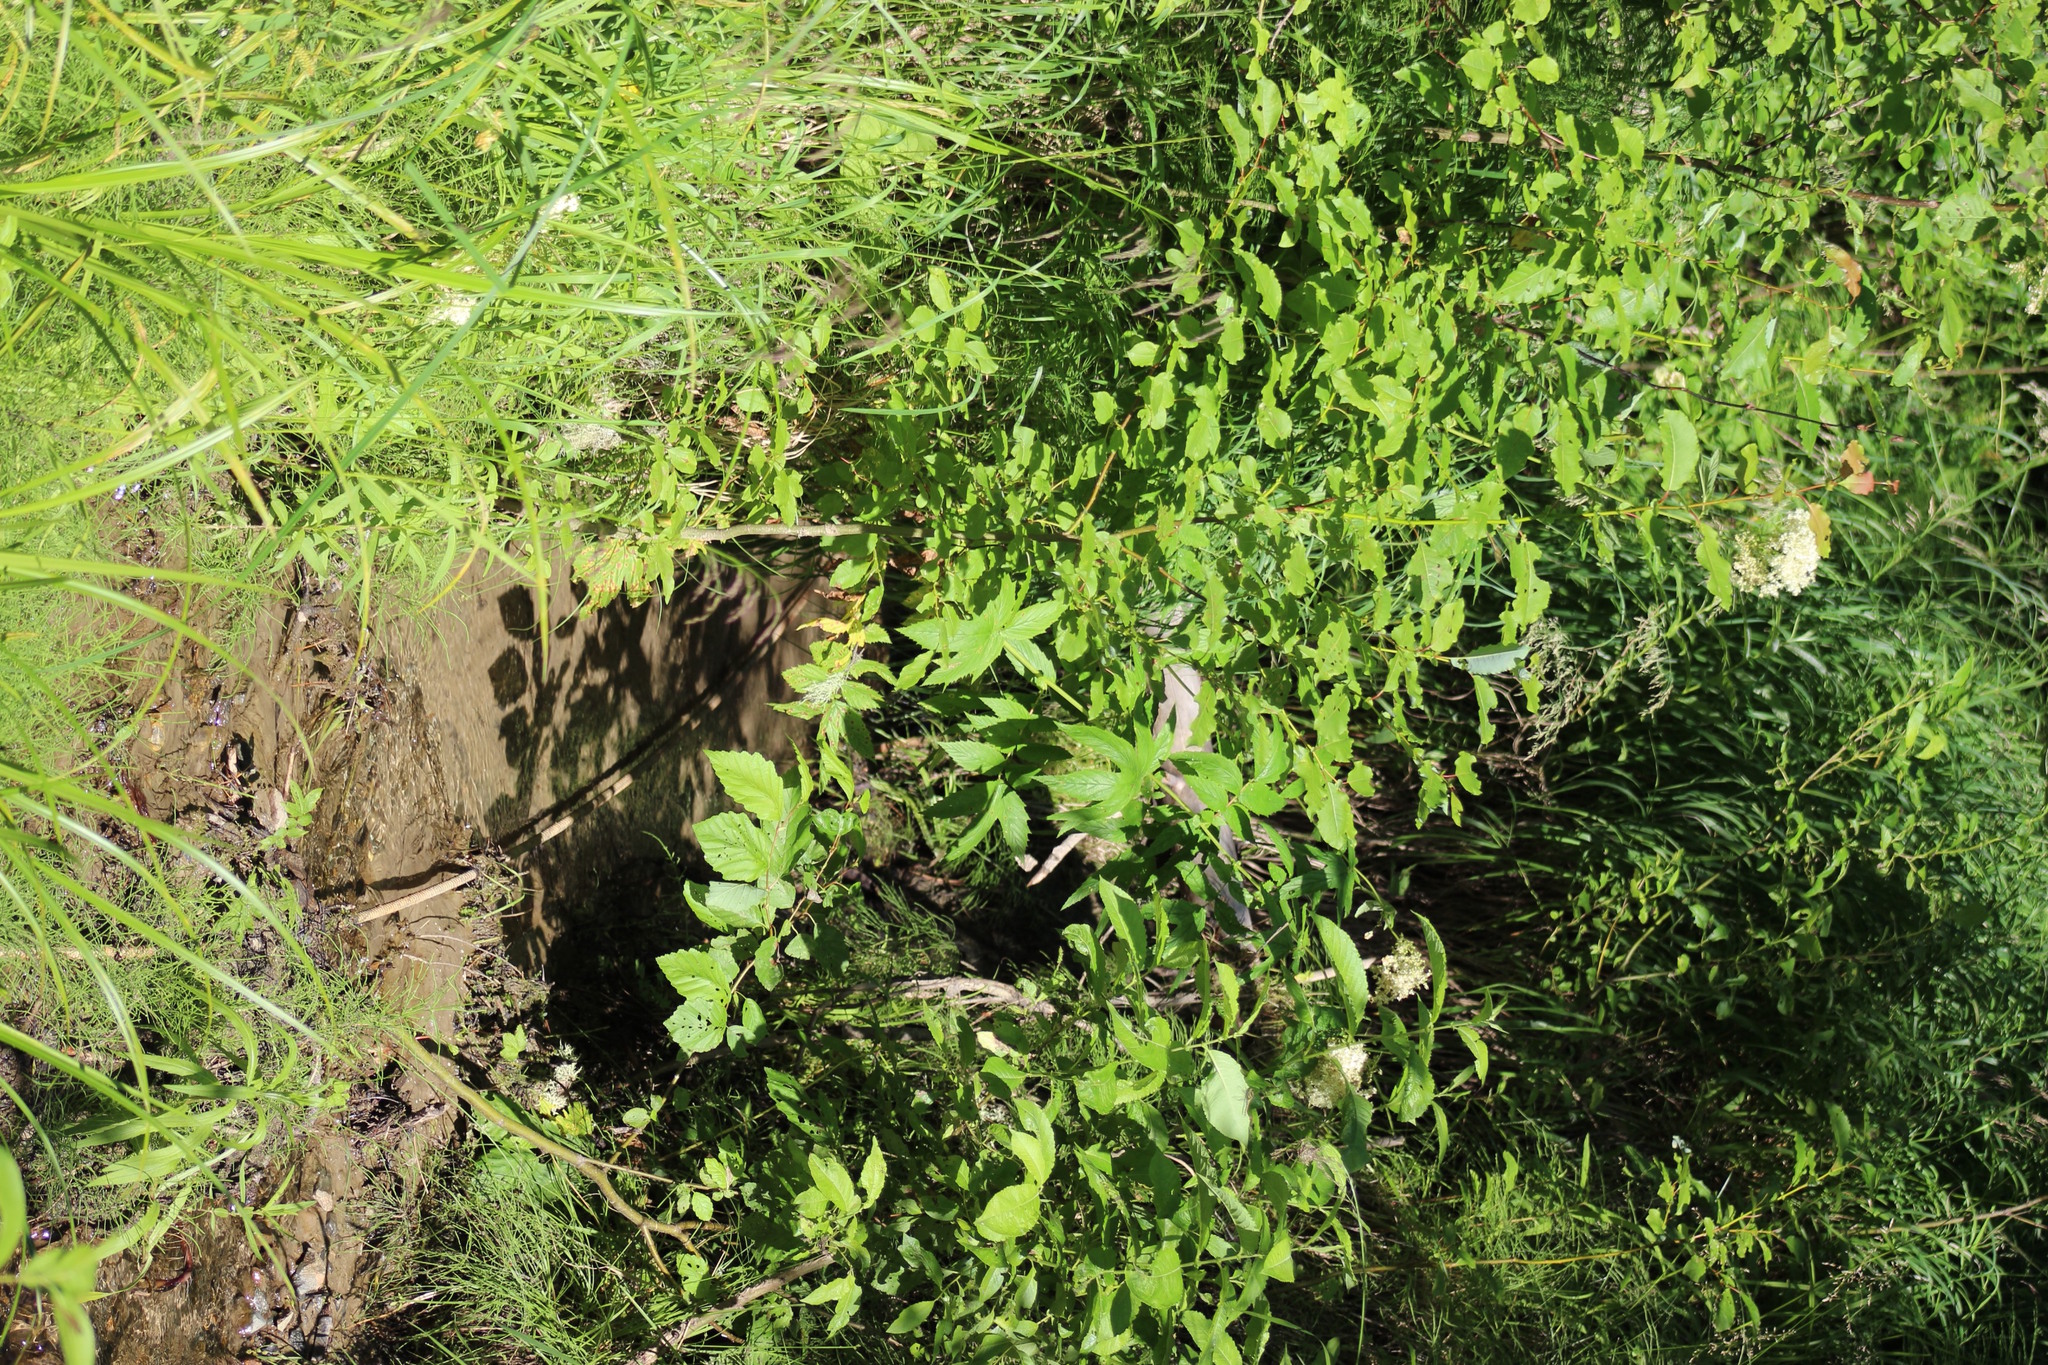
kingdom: Plantae
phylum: Tracheophyta
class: Magnoliopsida
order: Rosales
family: Rosaceae
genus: Filipendula
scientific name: Filipendula ulmaria
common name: Meadowsweet
